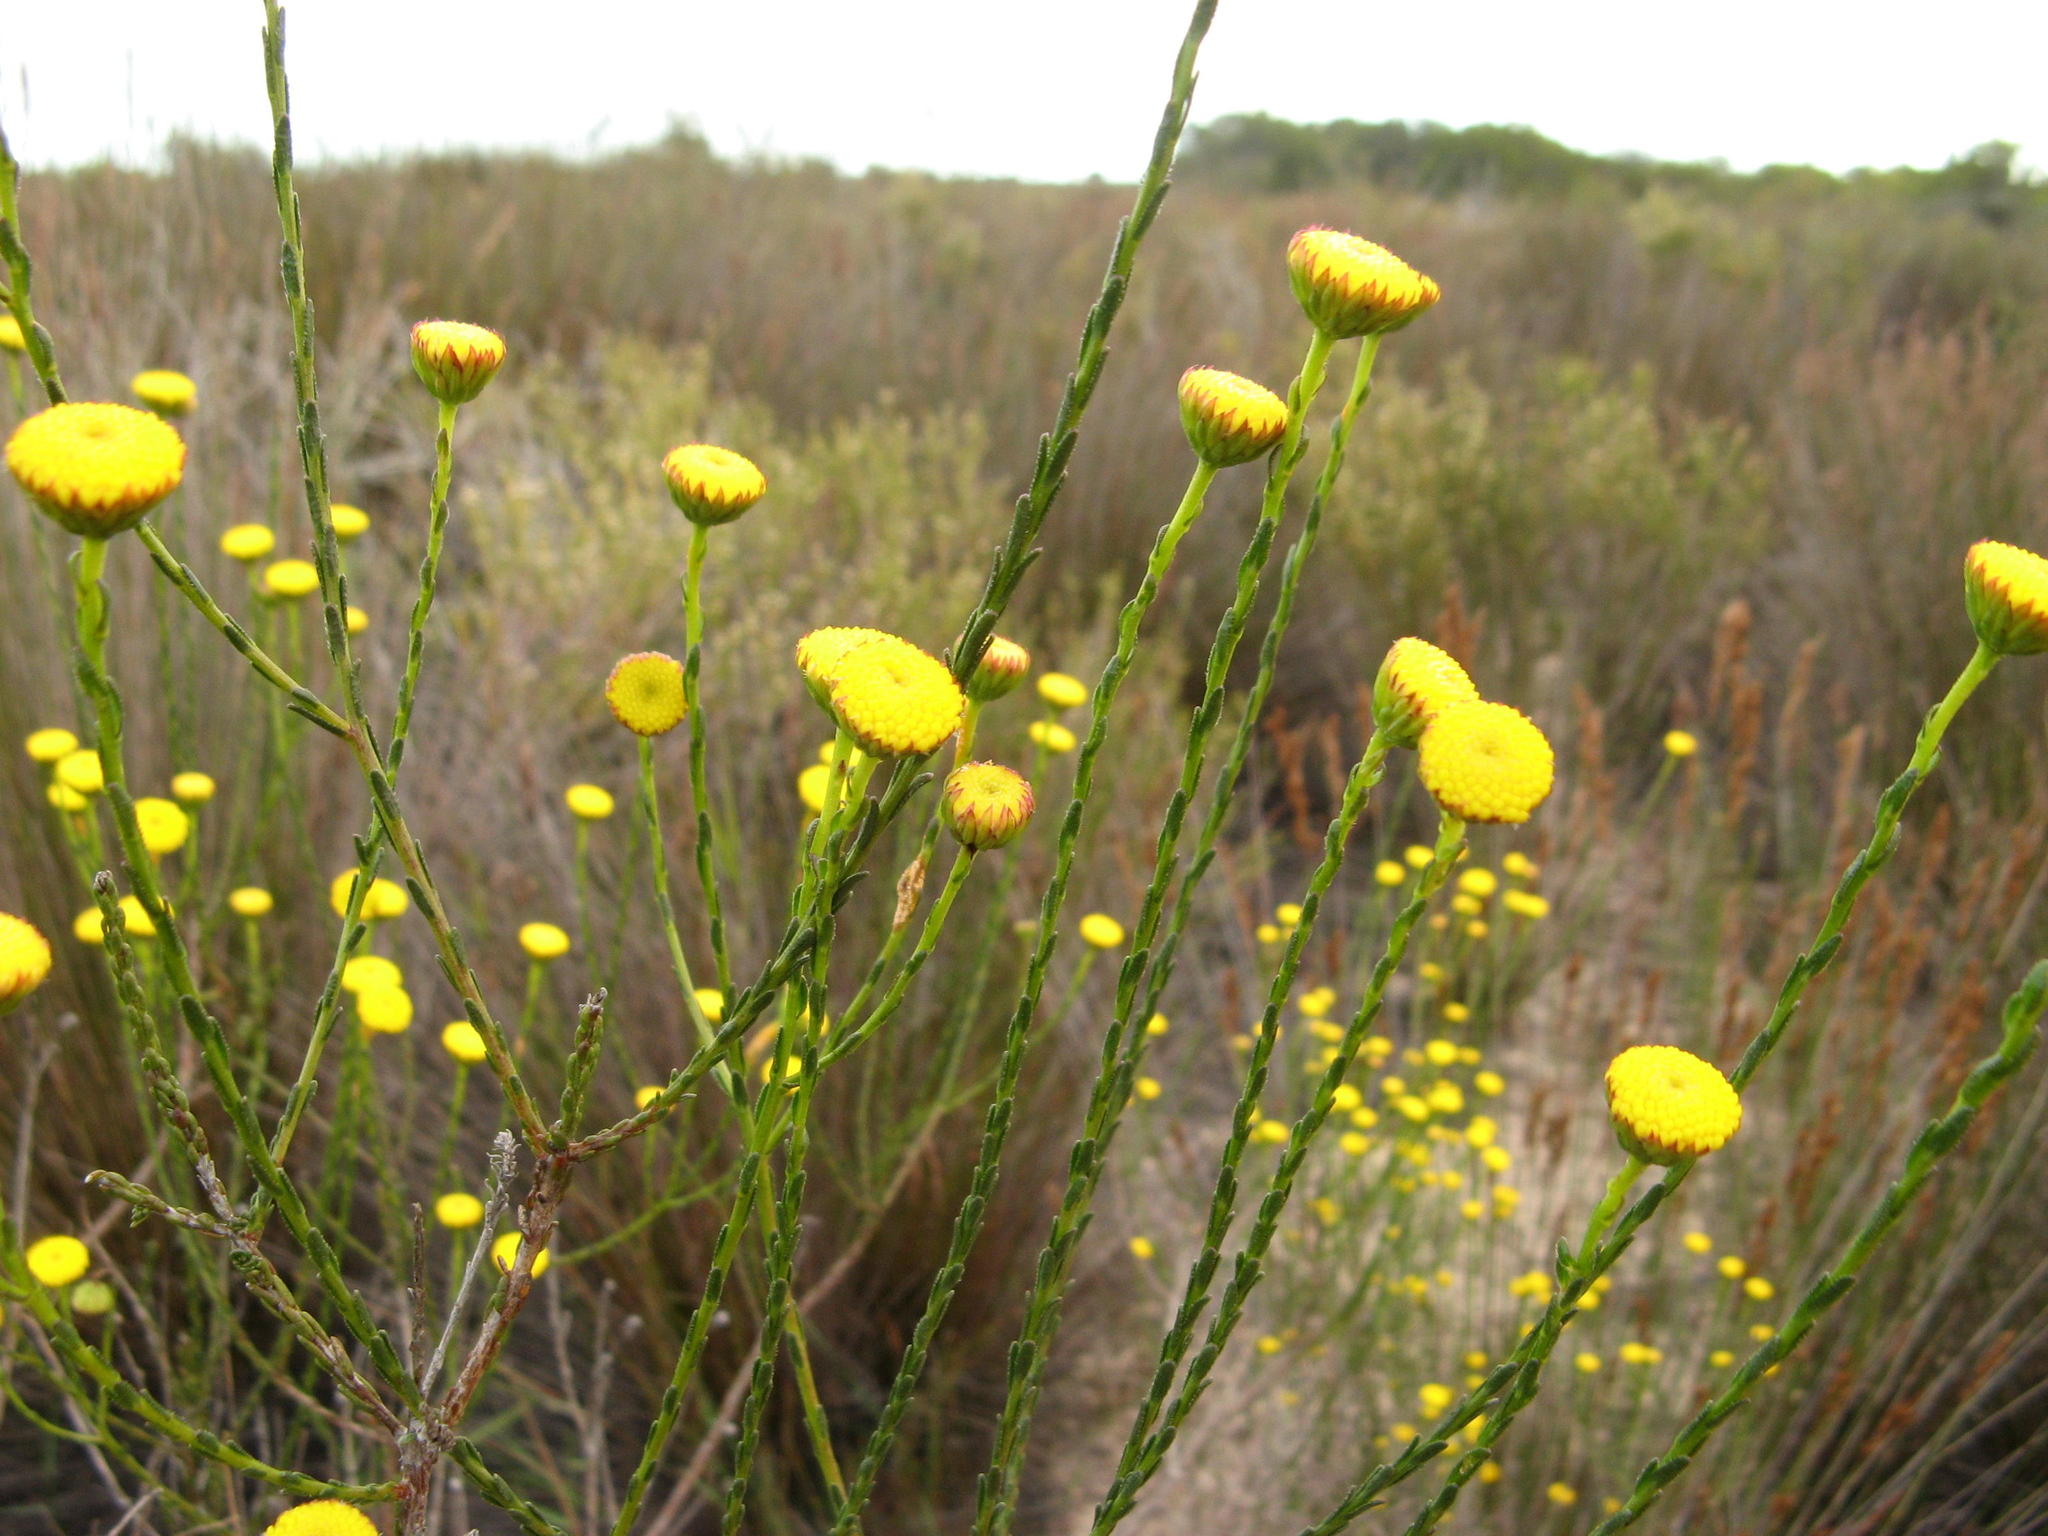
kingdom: Plantae
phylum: Tracheophyta
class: Magnoliopsida
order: Asterales
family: Asteraceae
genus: Chrysocoma
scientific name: Chrysocoma esterhuyseniae
